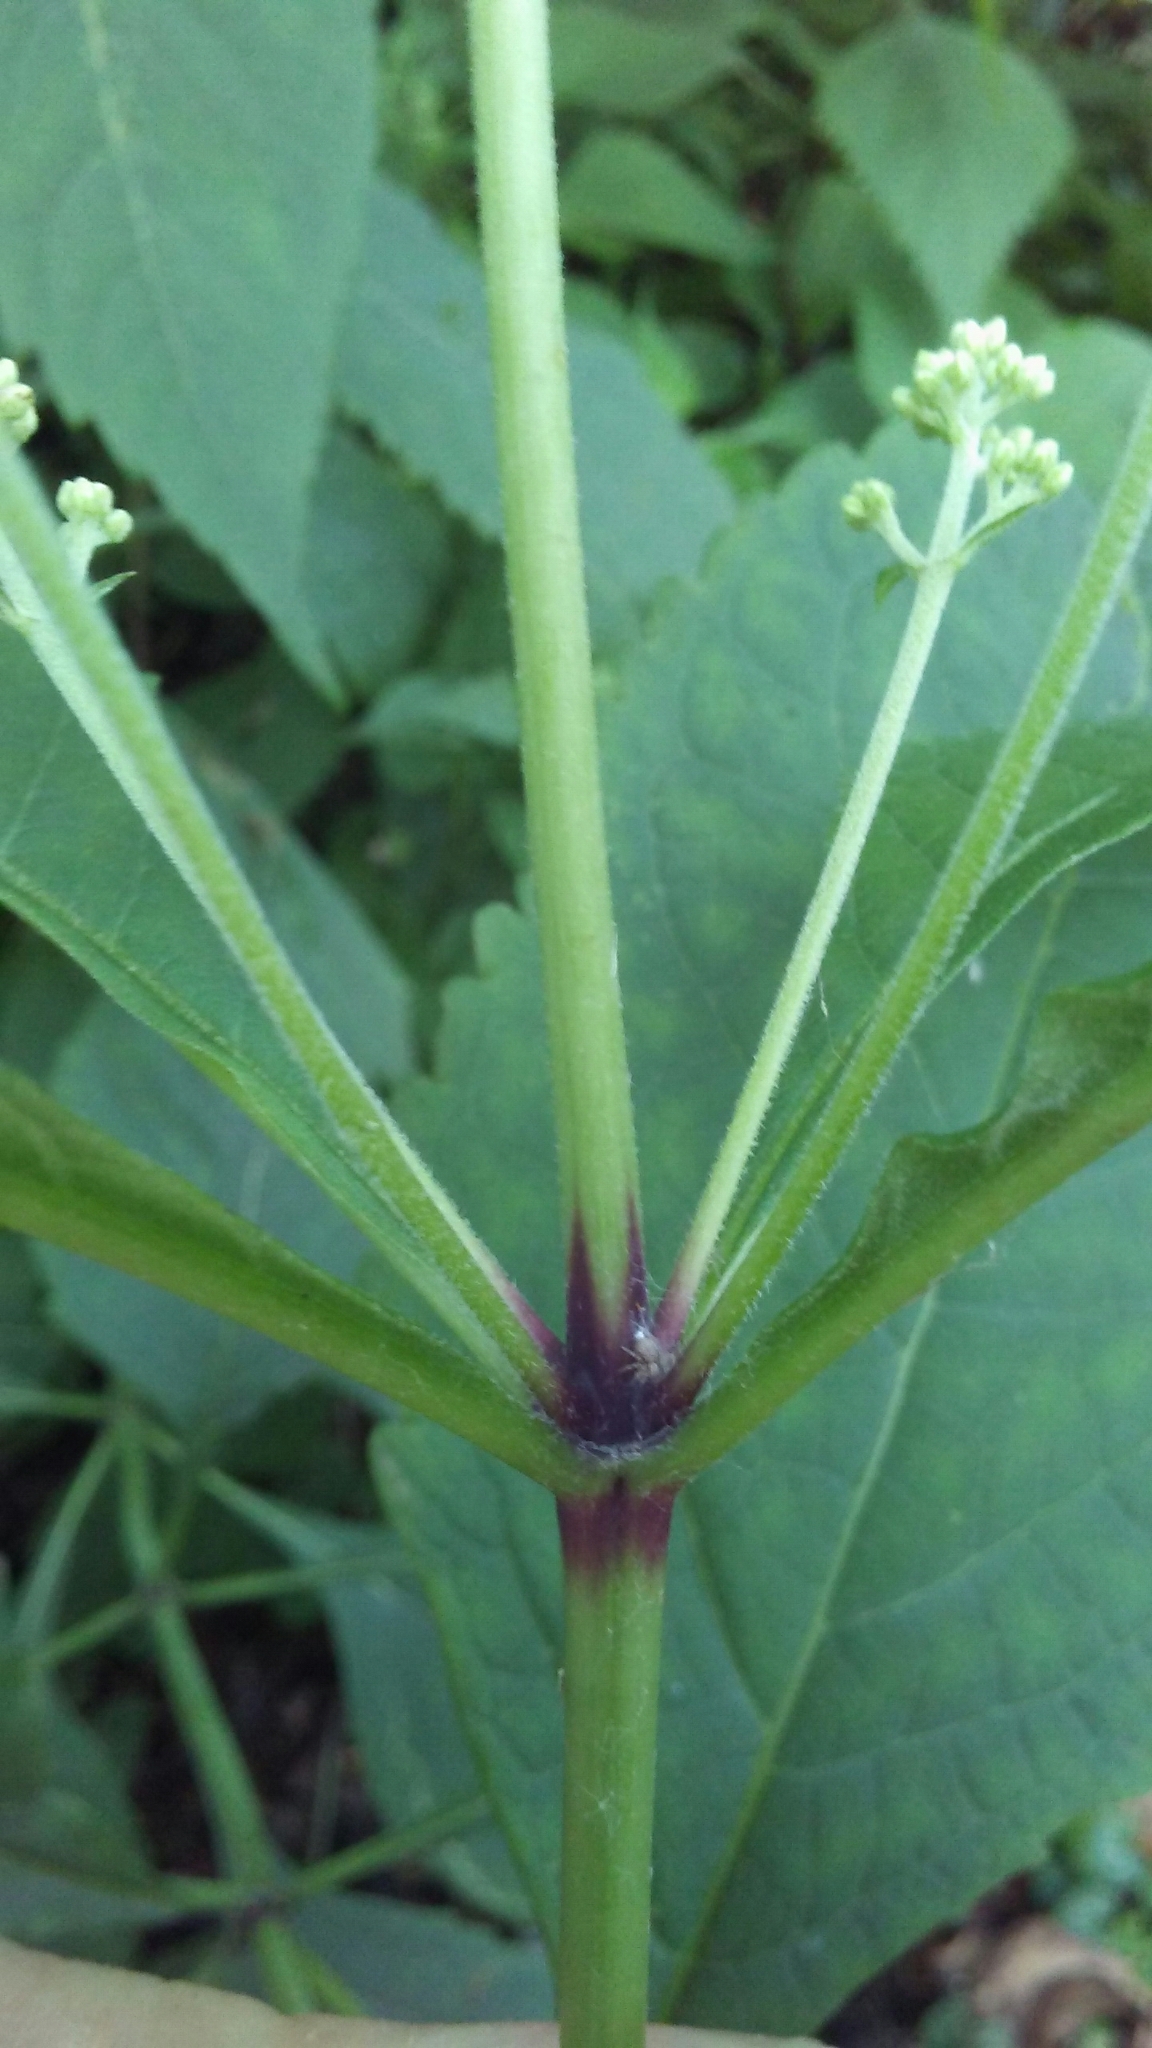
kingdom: Plantae
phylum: Tracheophyta
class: Magnoliopsida
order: Asterales
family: Asteraceae
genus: Eutrochium
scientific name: Eutrochium purpureum
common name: Gravelroot
